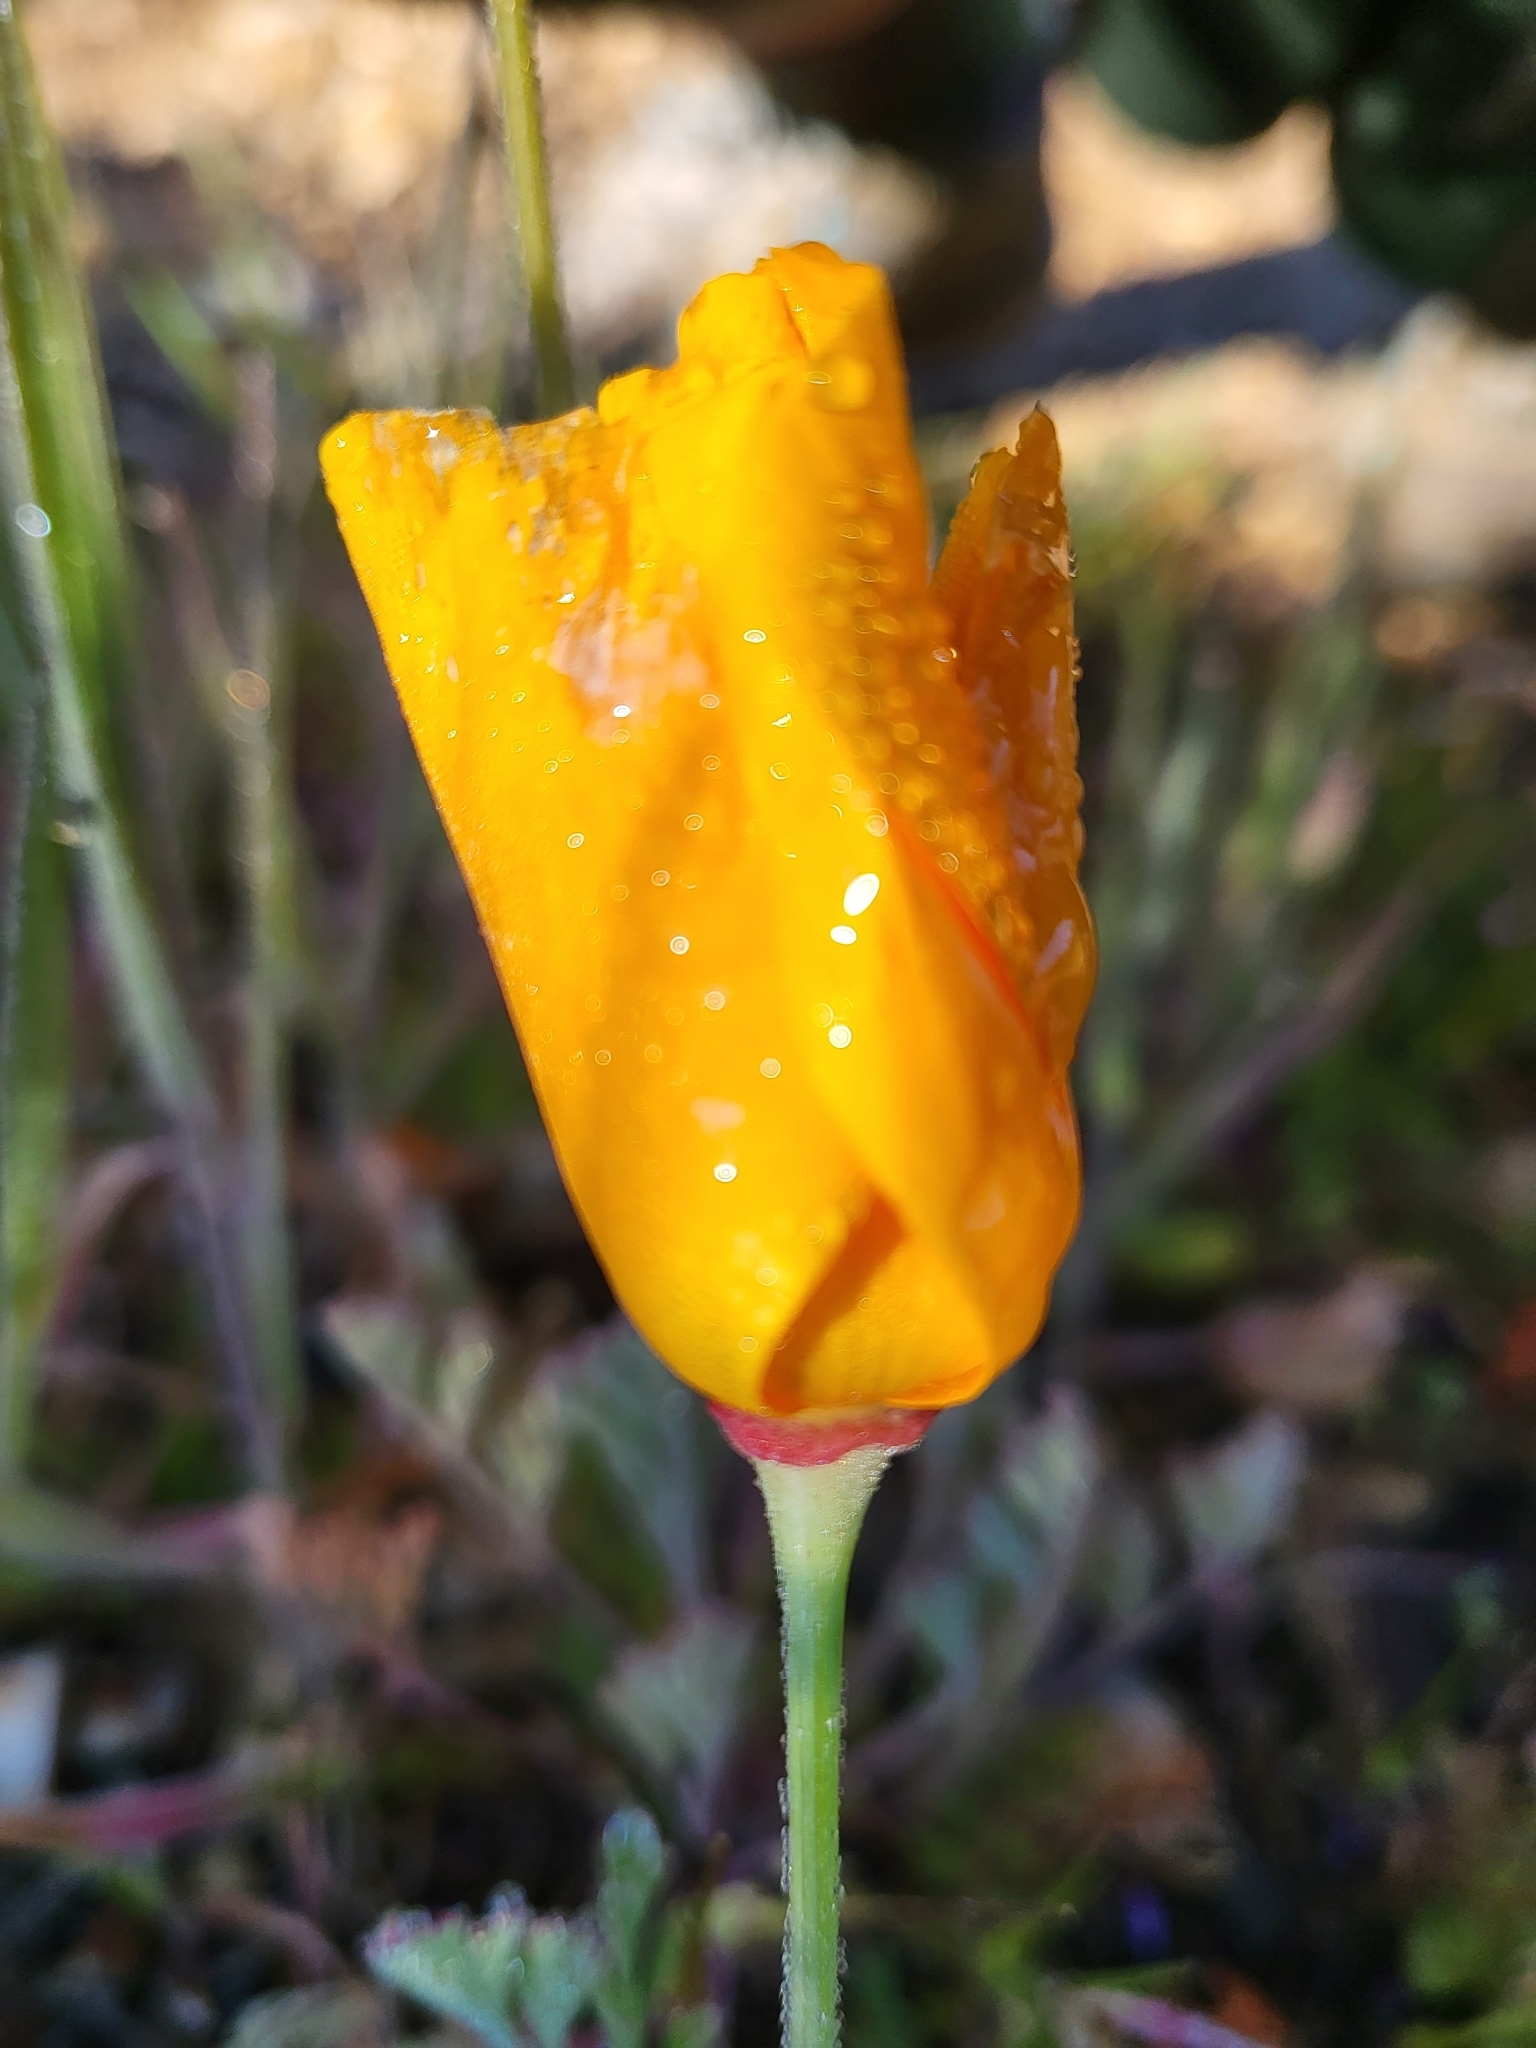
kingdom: Plantae
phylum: Tracheophyta
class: Magnoliopsida
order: Ranunculales
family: Papaveraceae
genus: Eschscholzia
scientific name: Eschscholzia californica
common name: California poppy
